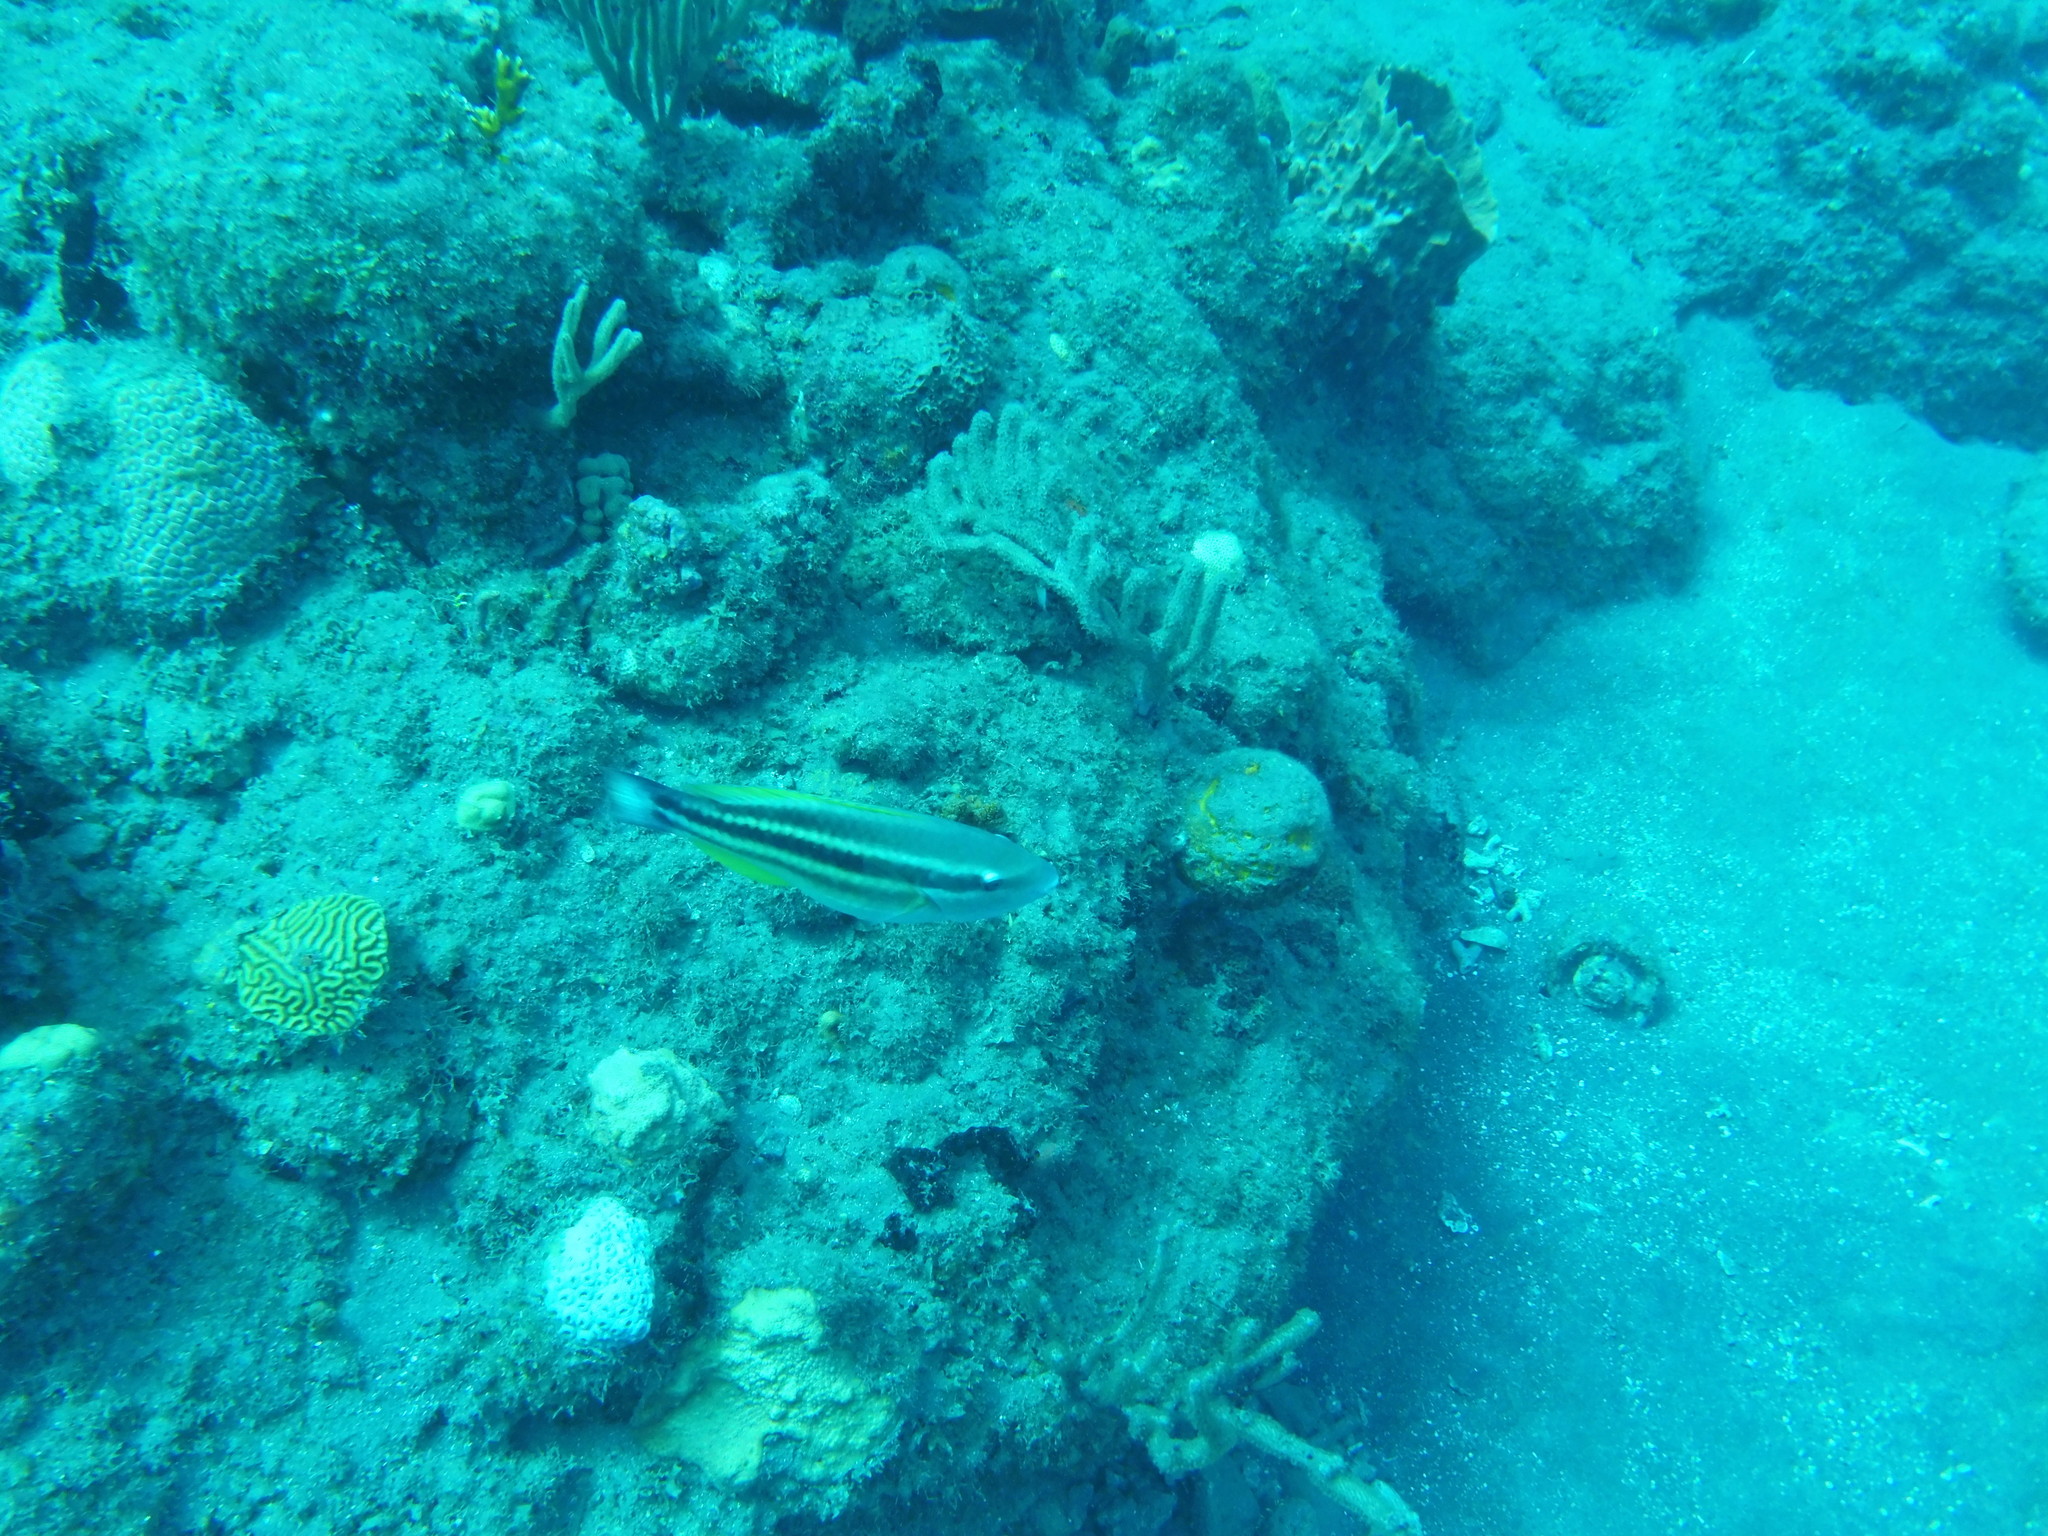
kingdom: Animalia
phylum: Chordata
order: Perciformes
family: Scaridae
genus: Scarus
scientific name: Scarus iseri
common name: Striped parrotfish
